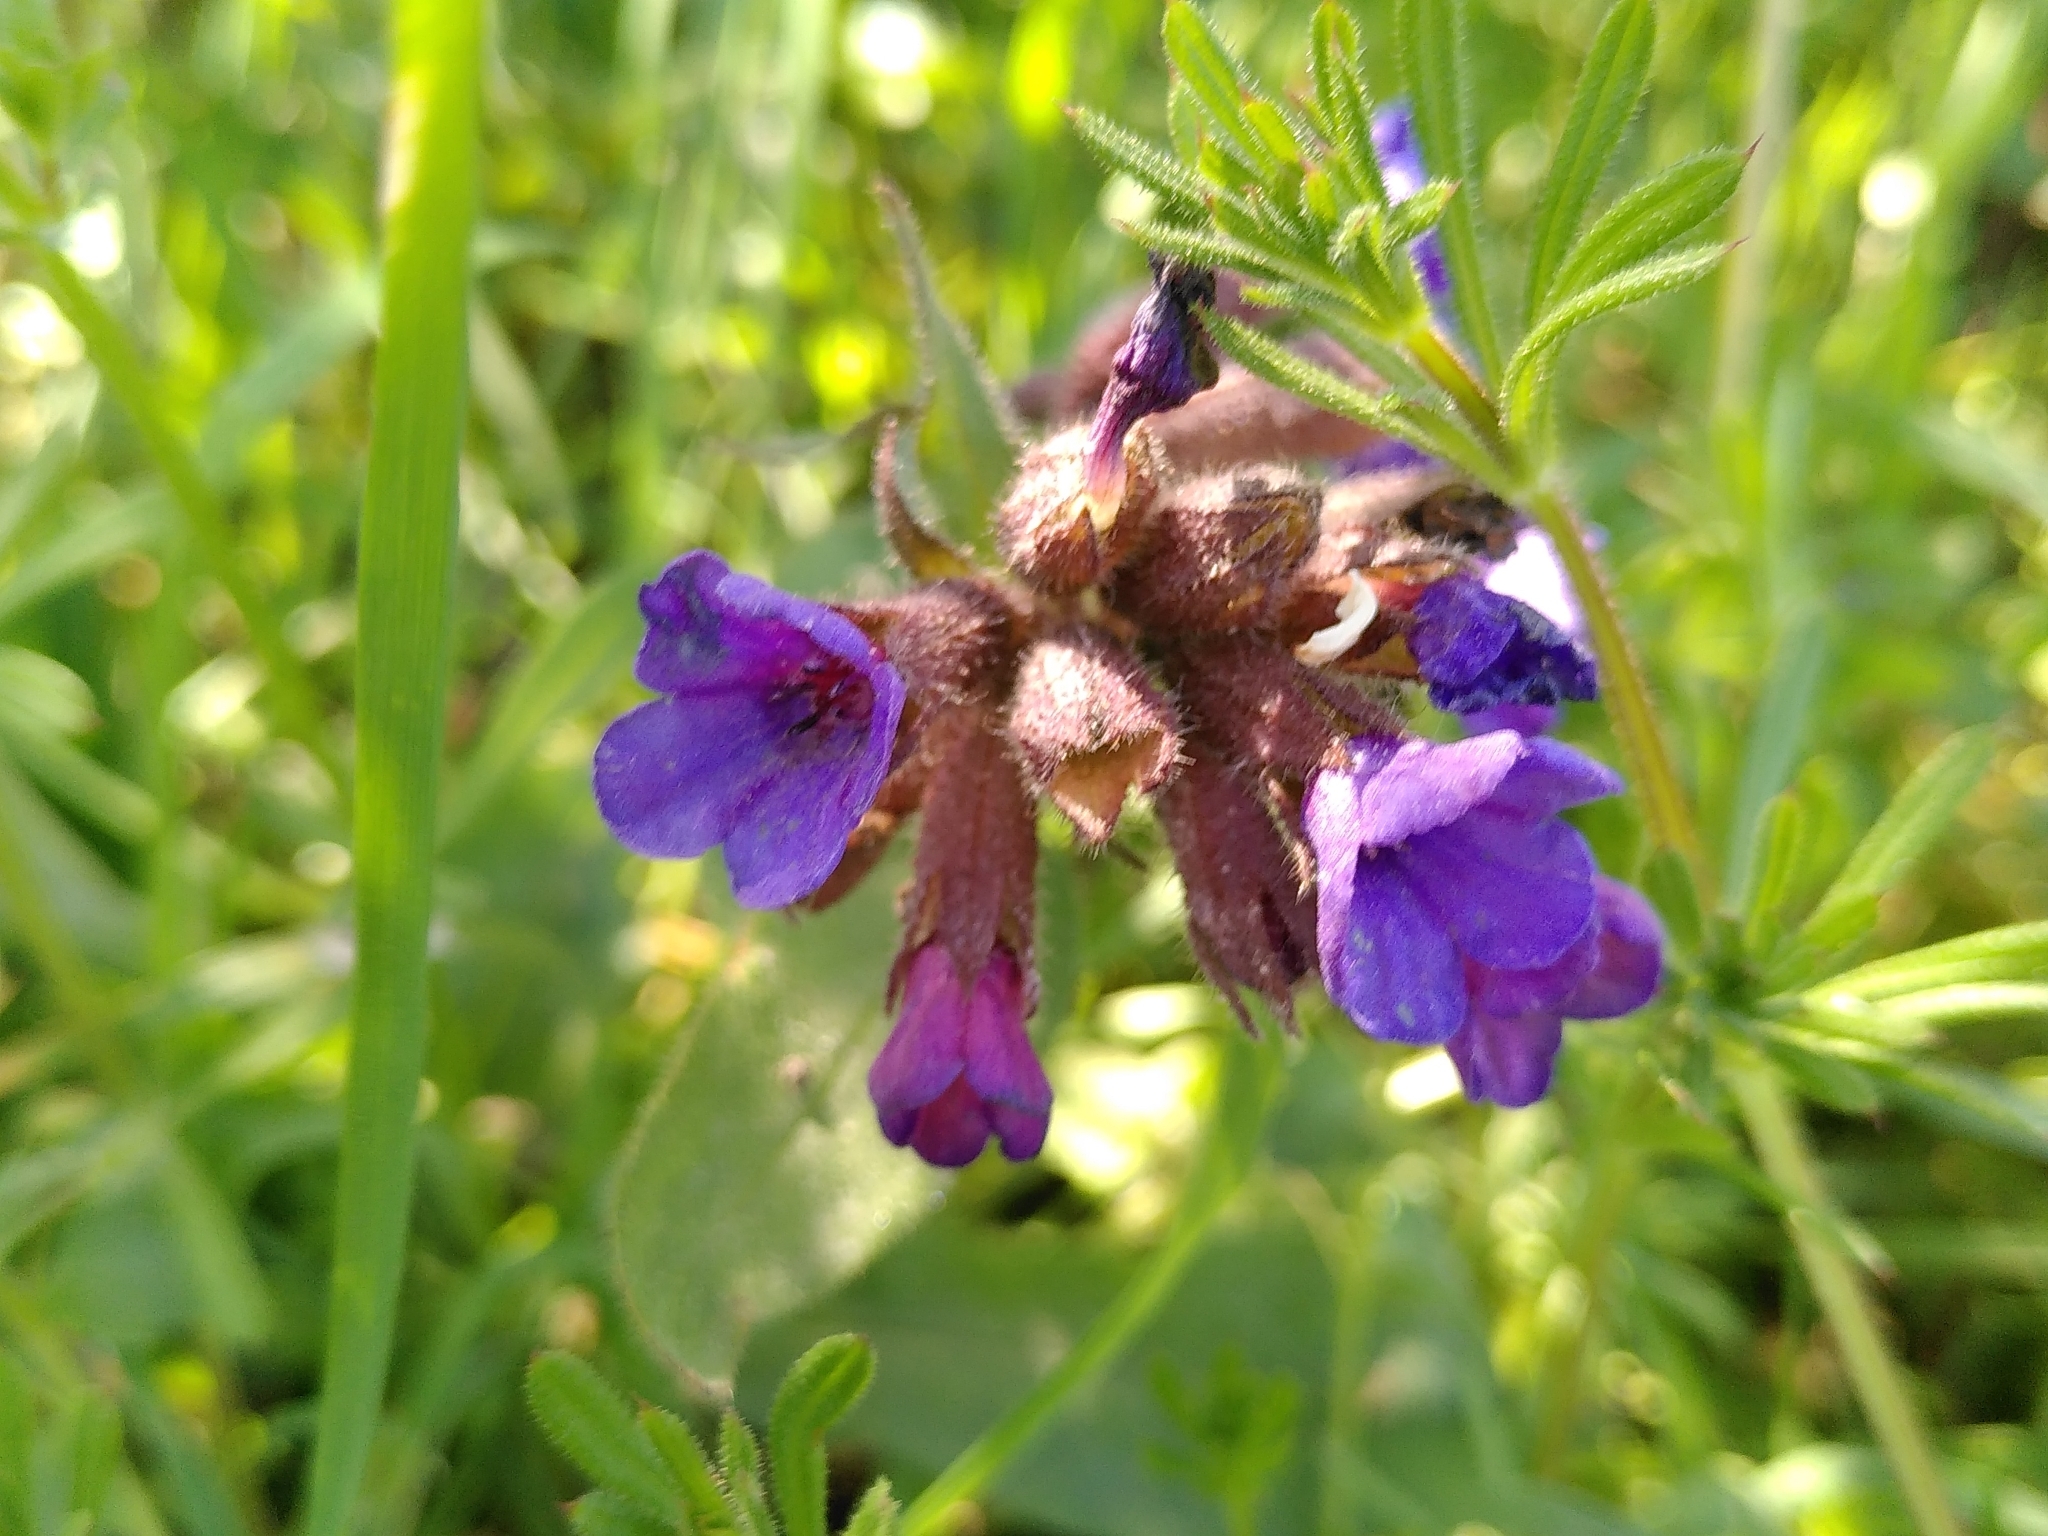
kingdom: Plantae
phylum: Tracheophyta
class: Magnoliopsida
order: Boraginales
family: Boraginaceae
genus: Pulmonaria
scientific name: Pulmonaria longifolia
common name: Narrow-leaved lungwort
